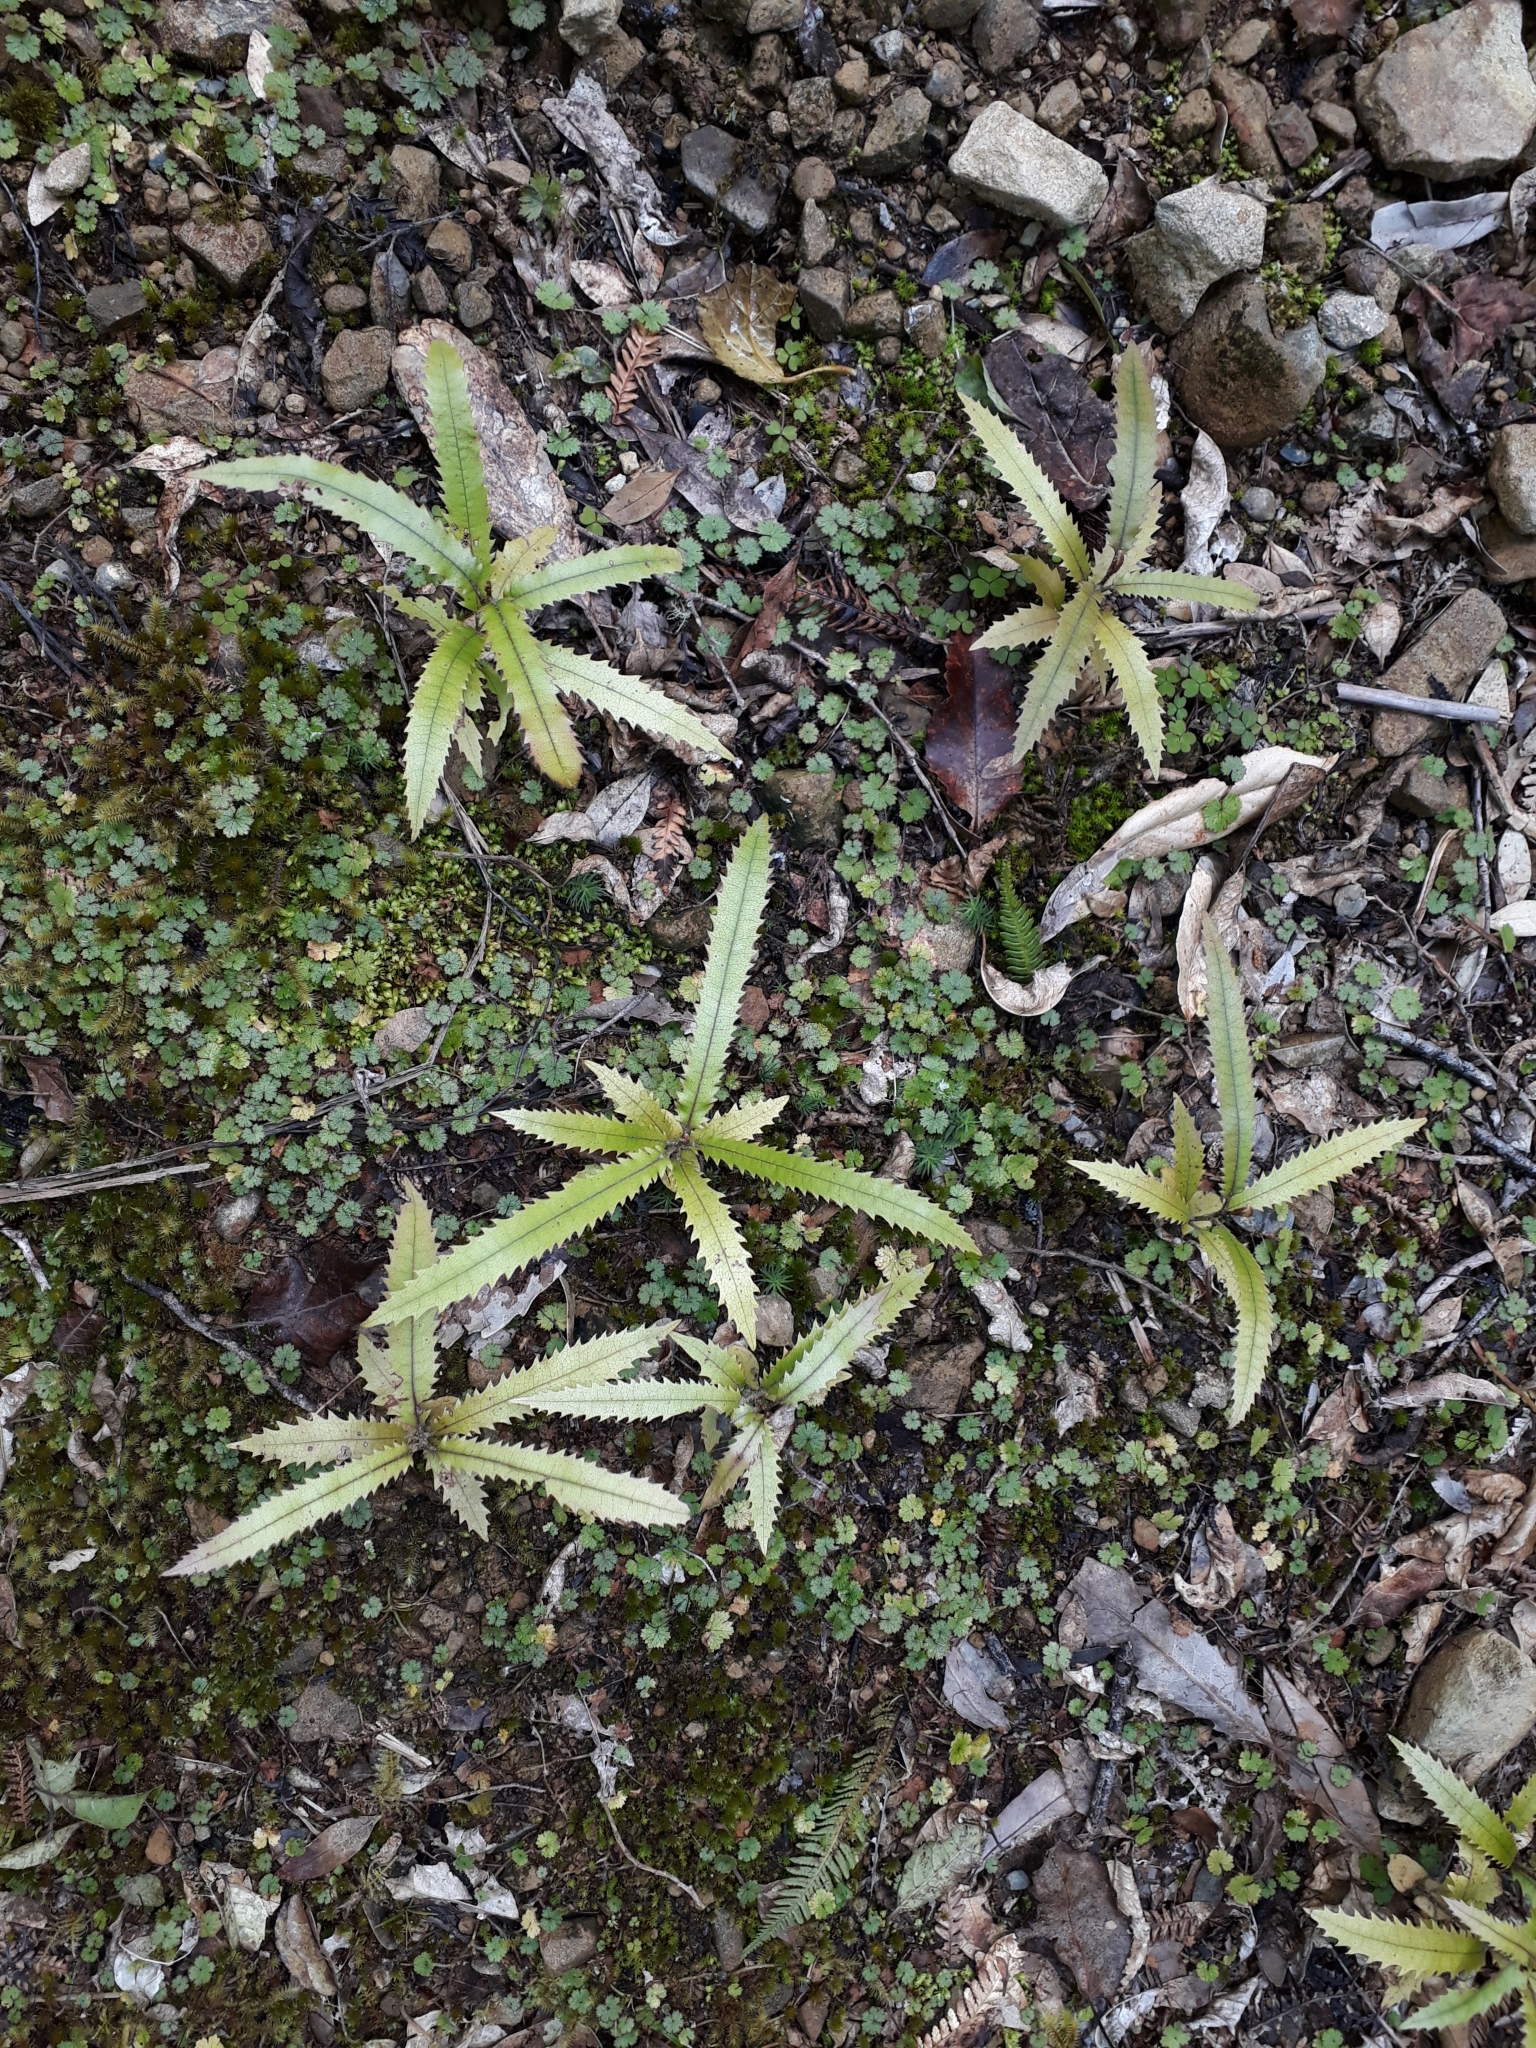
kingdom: Plantae
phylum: Tracheophyta
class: Magnoliopsida
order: Proteales
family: Proteaceae
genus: Knightia
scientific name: Knightia excelsa
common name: New zealand-honeysuckle
